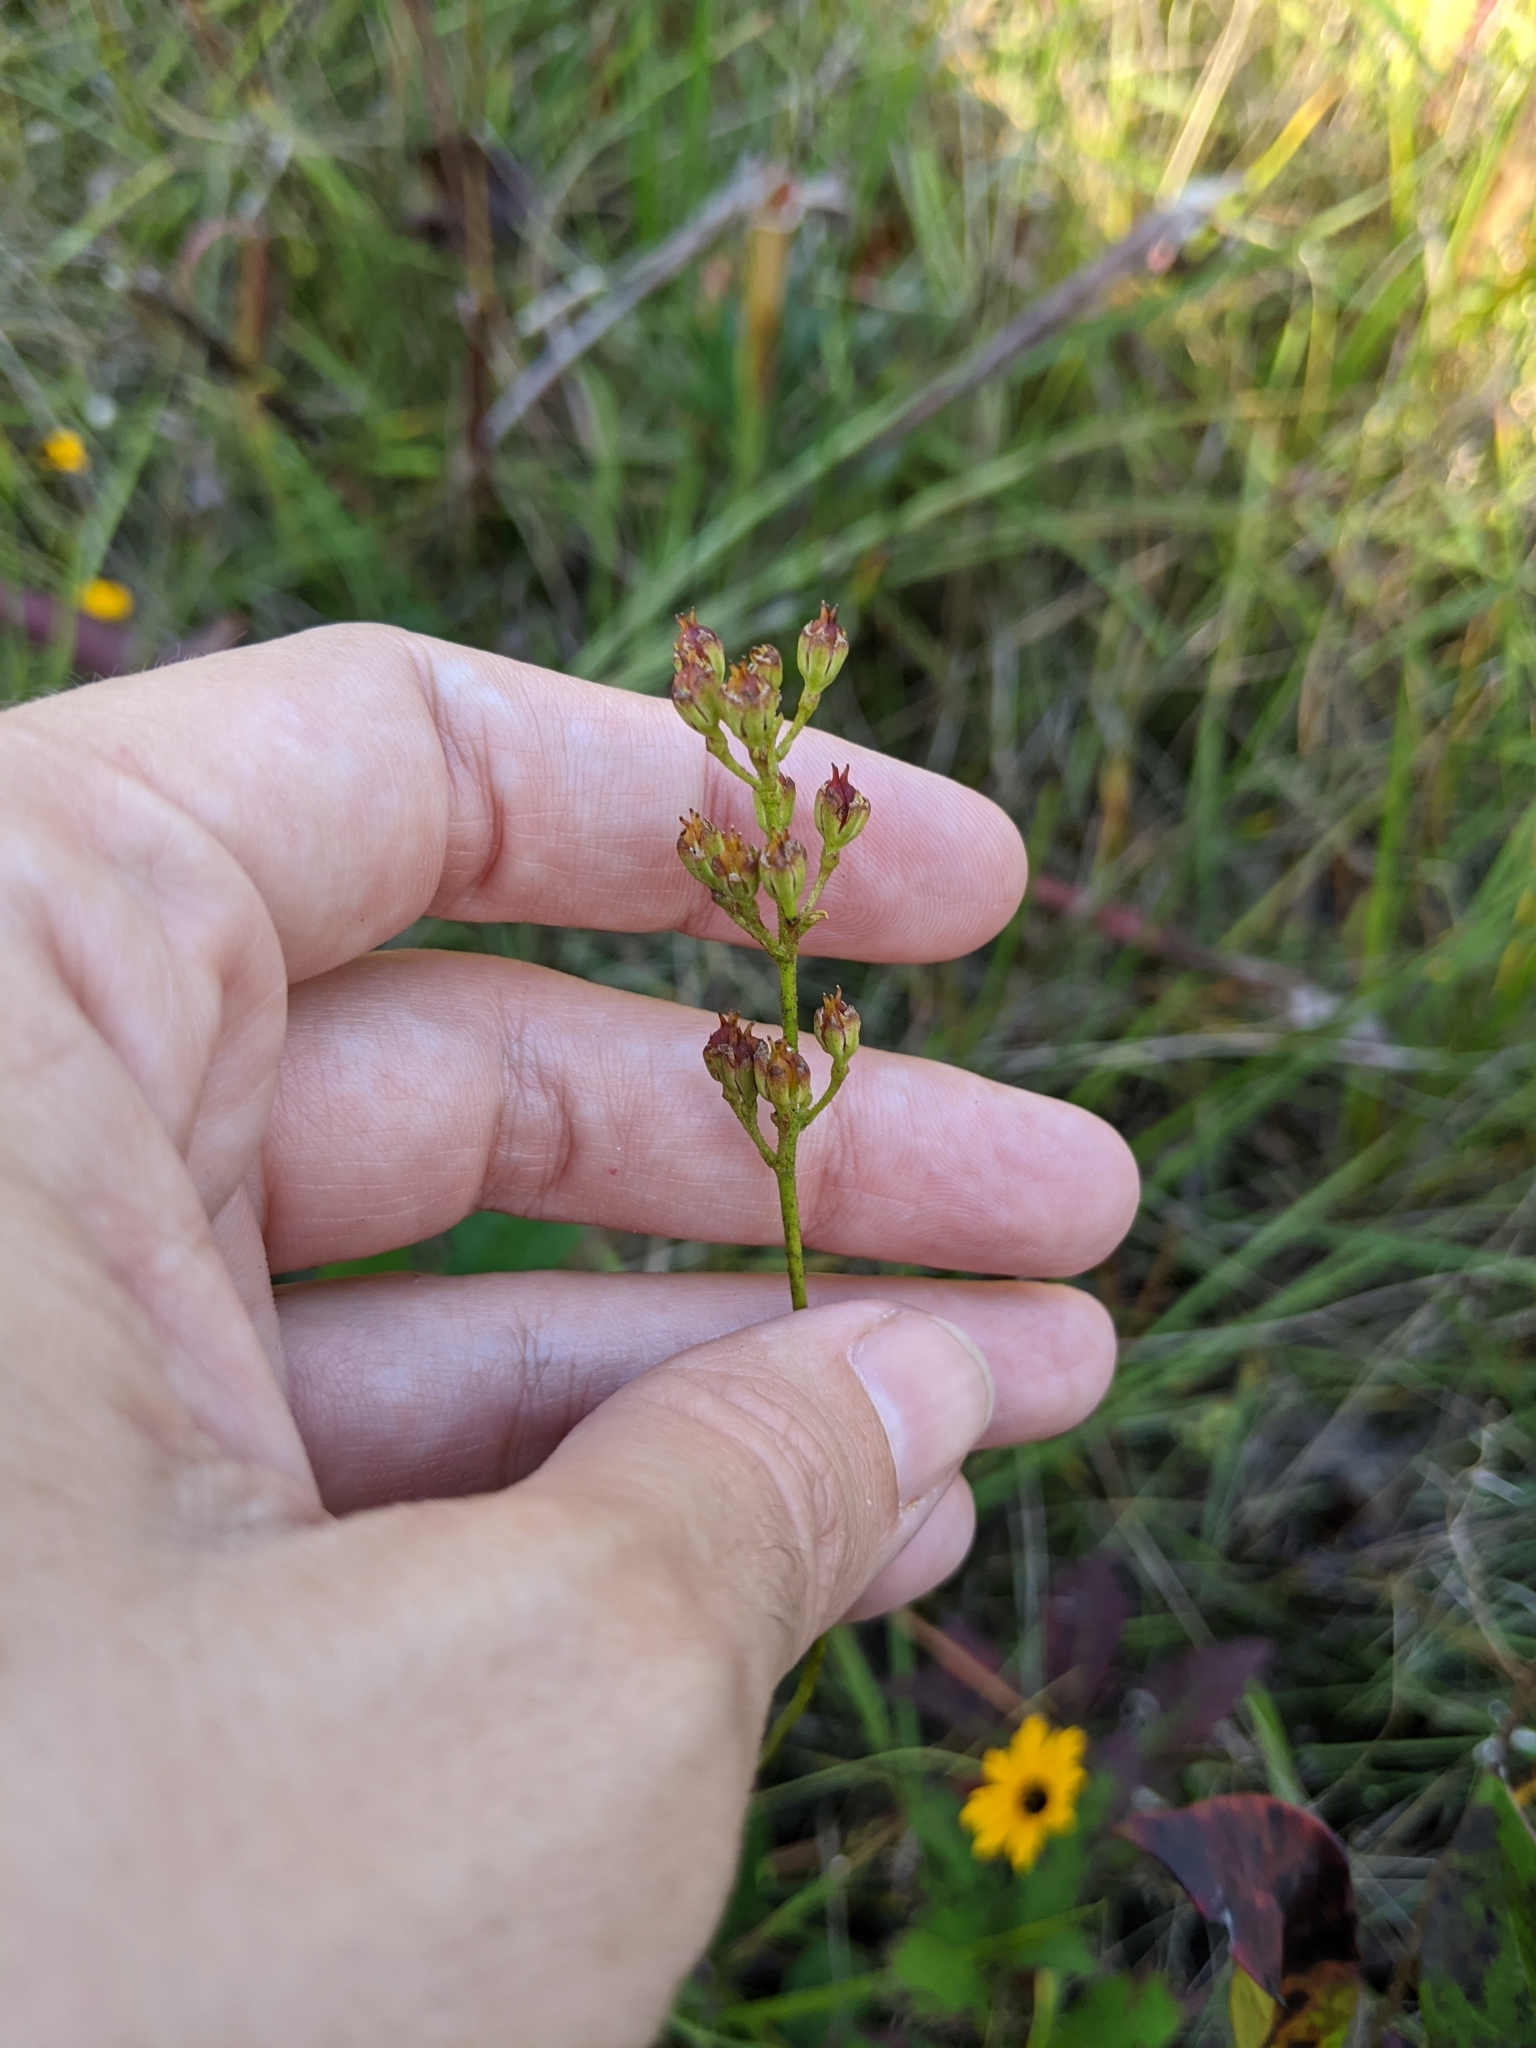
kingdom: Plantae
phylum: Tracheophyta
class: Liliopsida
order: Alismatales
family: Tofieldiaceae
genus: Triantha
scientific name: Triantha racemosa
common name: Coastal false asphodel
